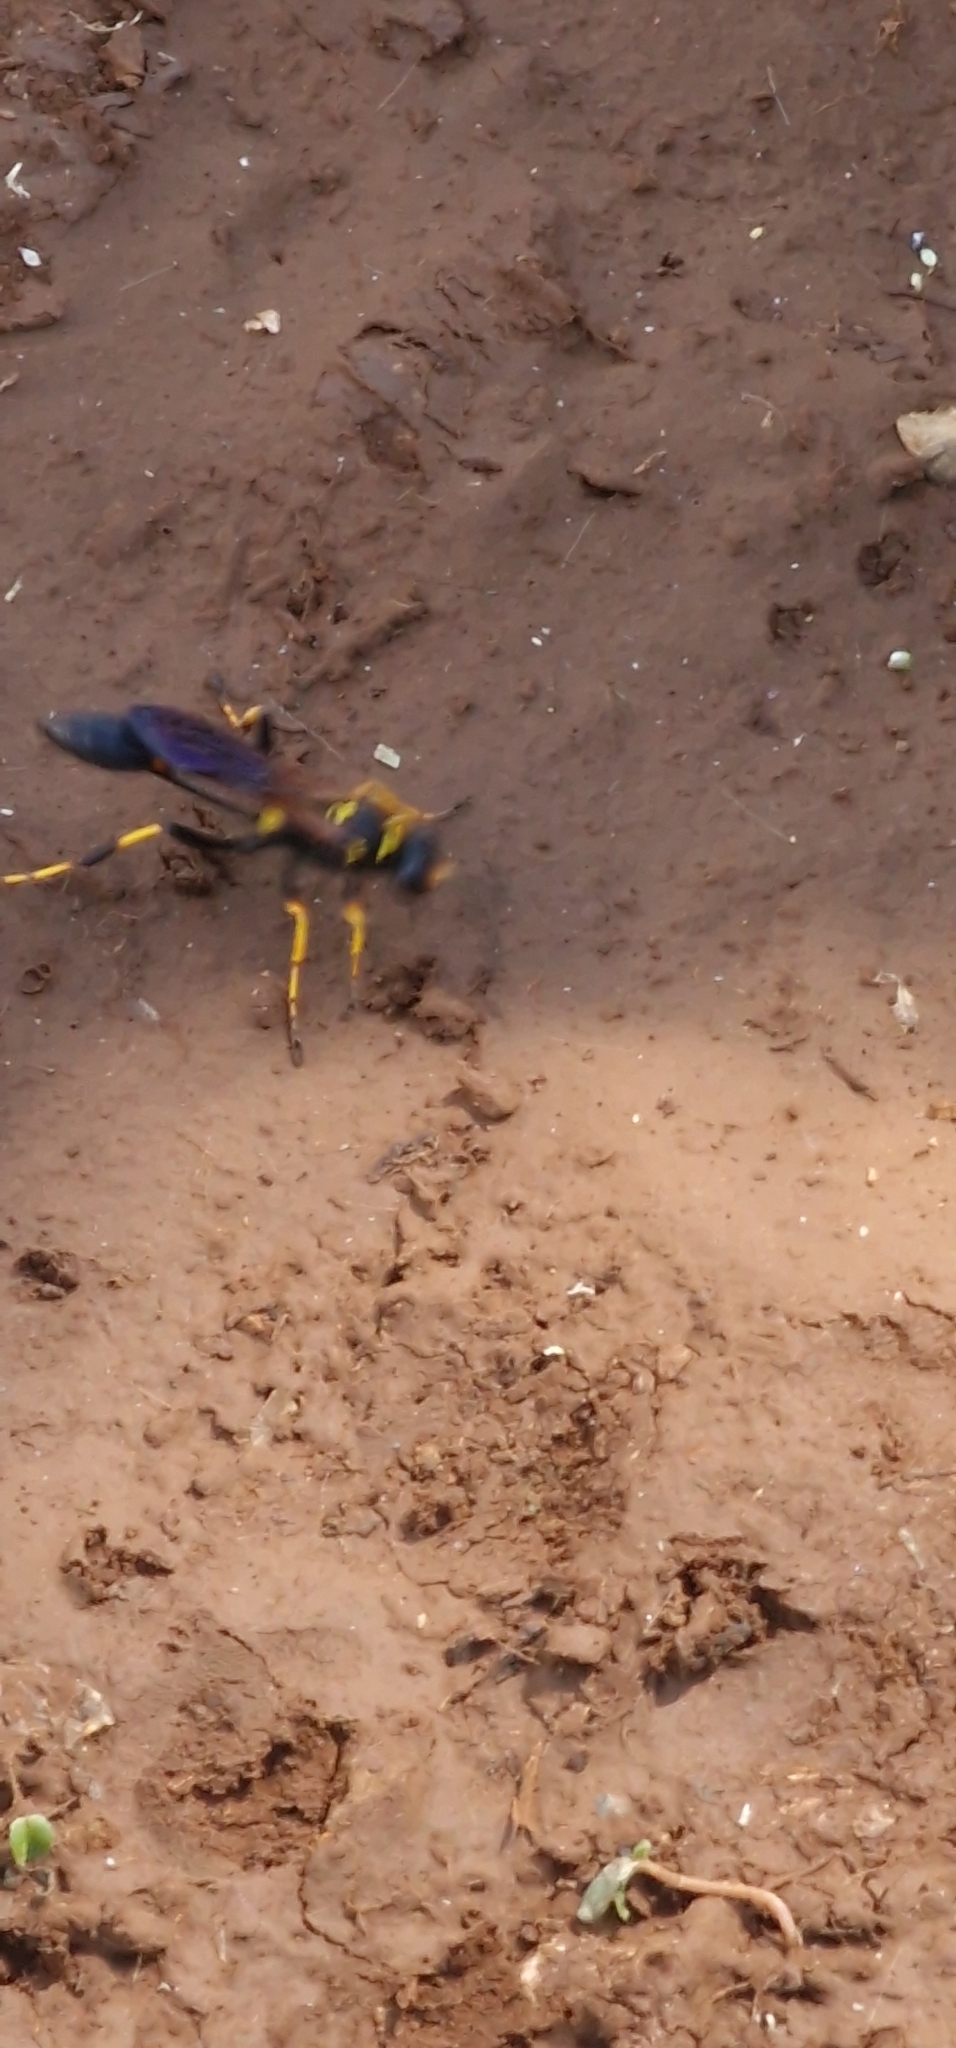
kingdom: Animalia
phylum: Arthropoda
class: Insecta
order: Hymenoptera
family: Sphecidae
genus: Sceliphron
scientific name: Sceliphron caementarium
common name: Mud dauber
